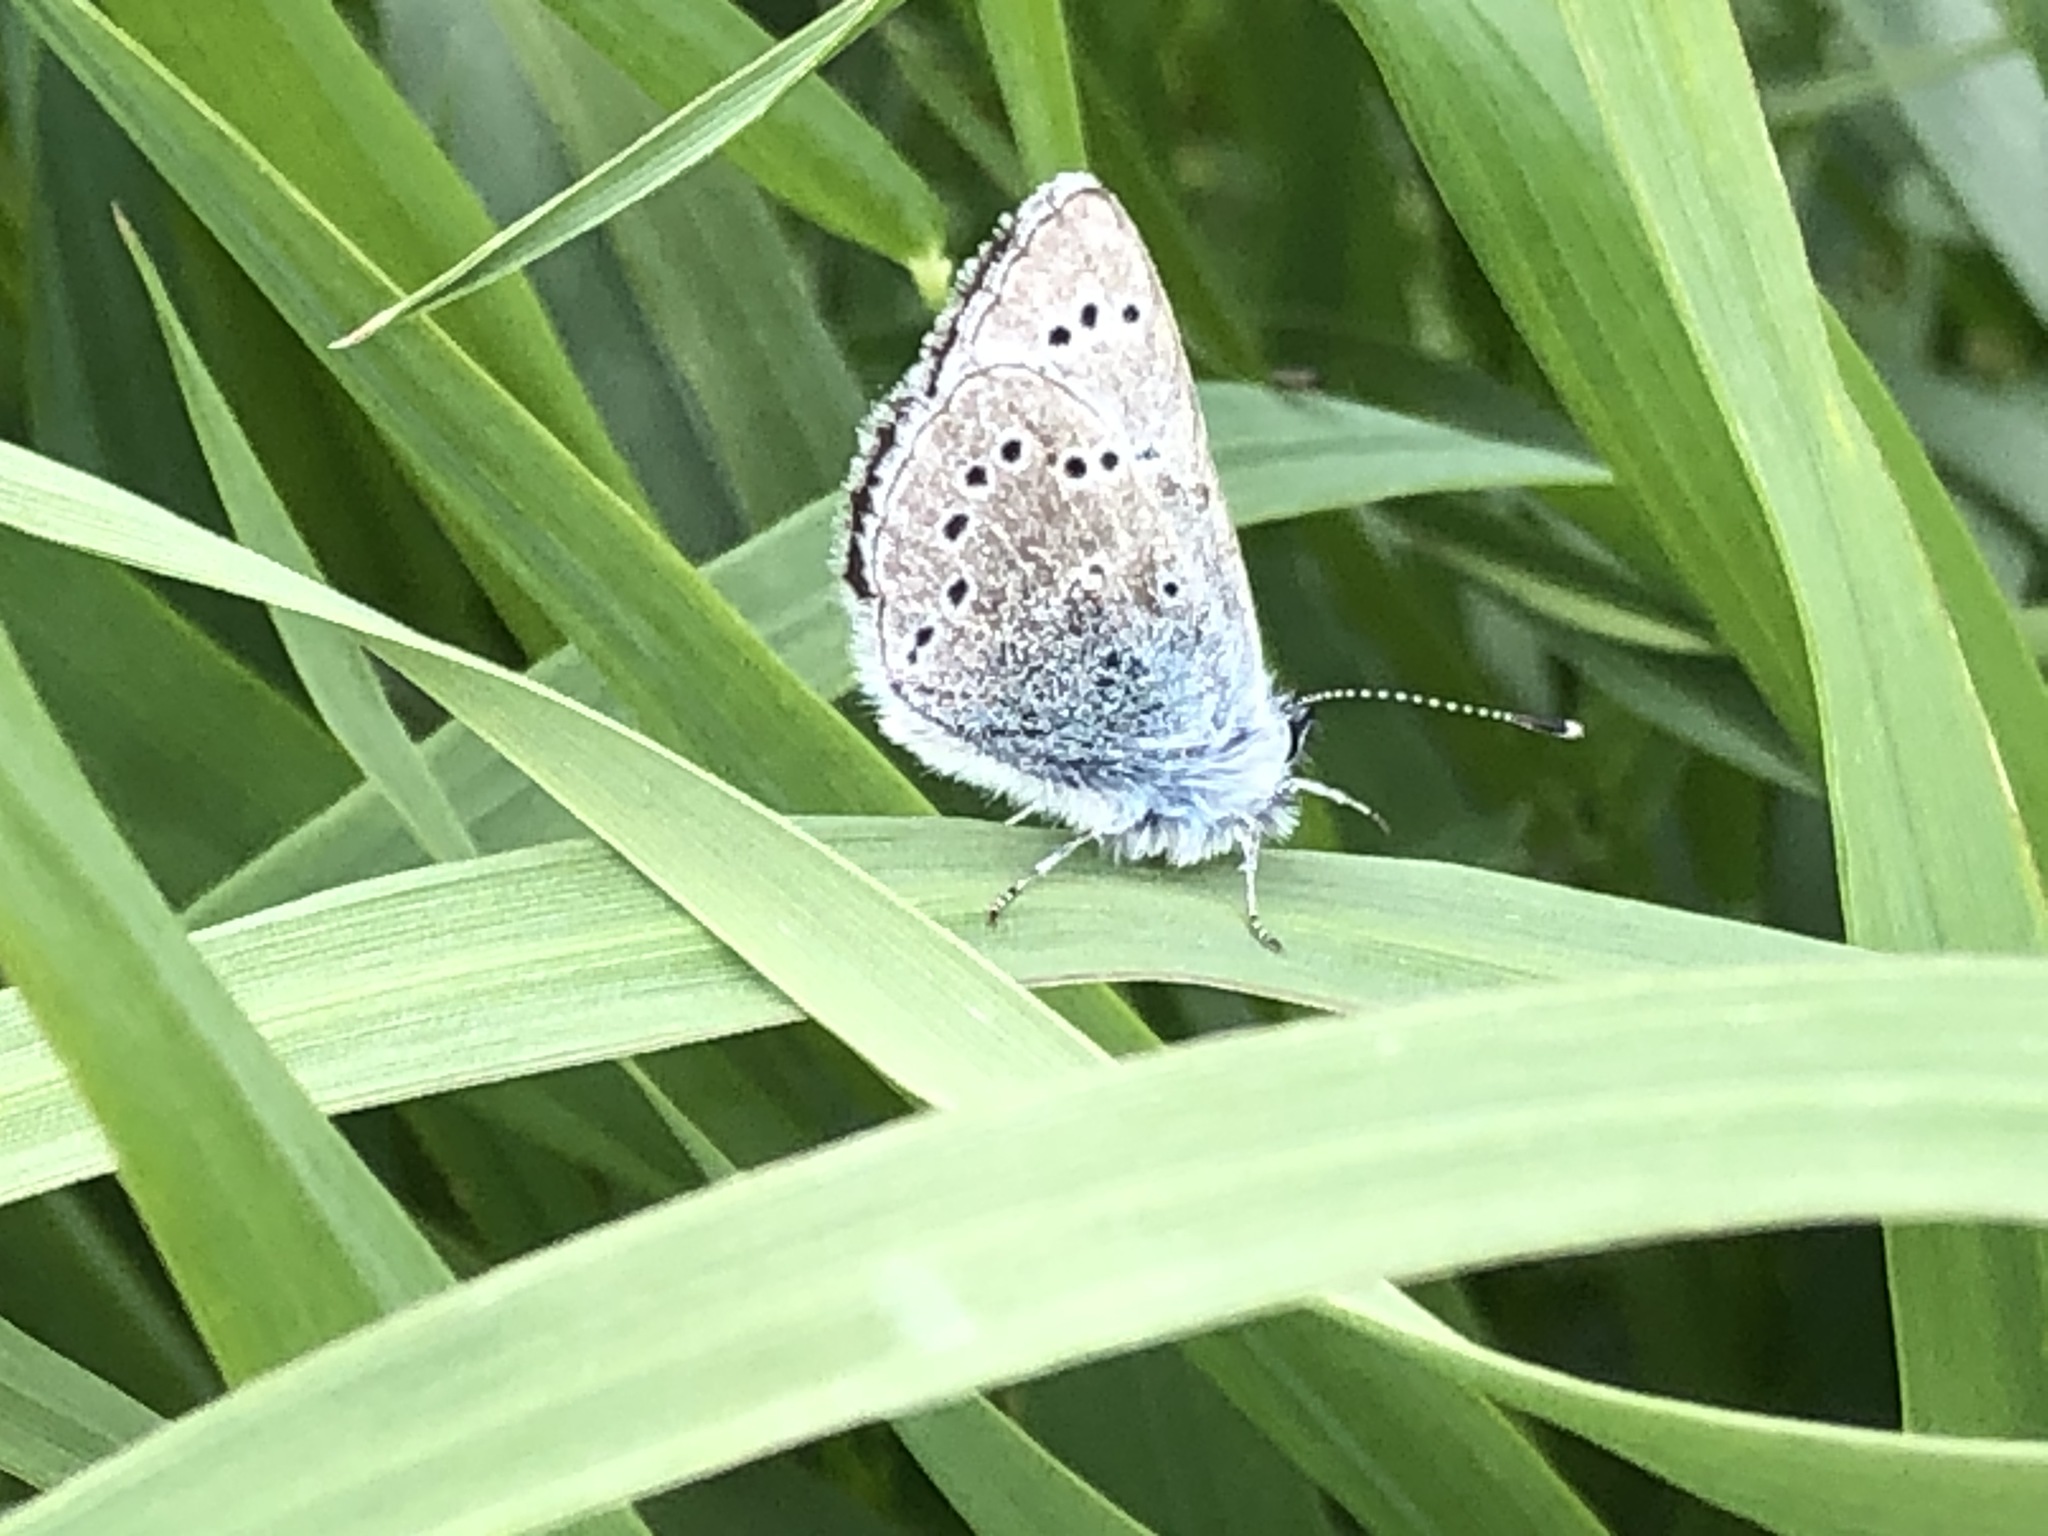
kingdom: Animalia
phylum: Arthropoda
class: Insecta
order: Lepidoptera
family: Lycaenidae
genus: Glaucopsyche
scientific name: Glaucopsyche lygdamus
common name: Silvery blue
